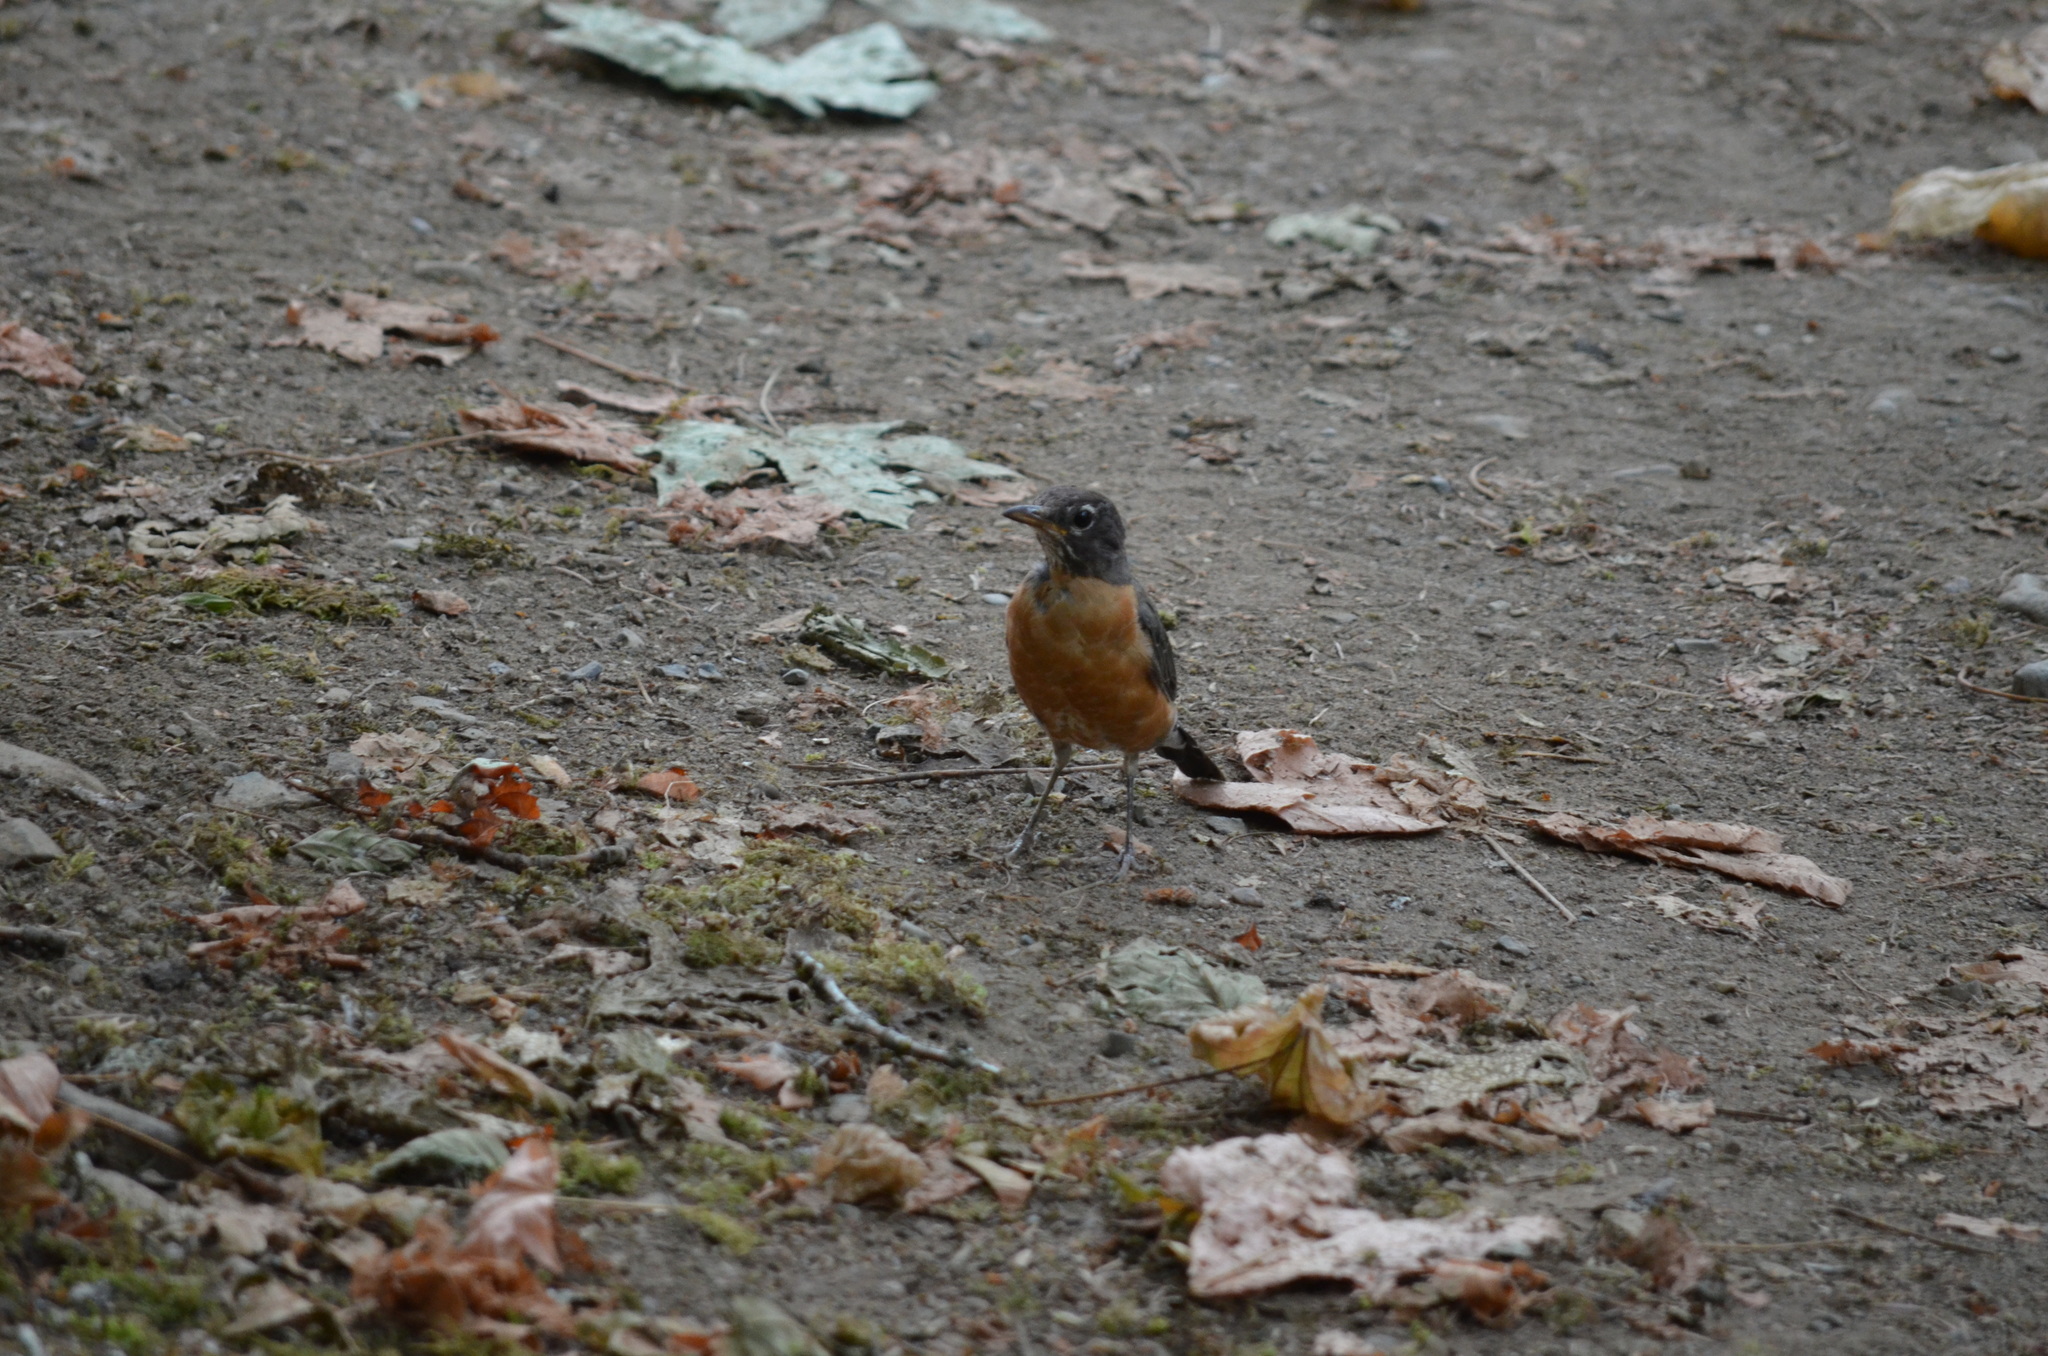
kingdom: Animalia
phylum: Chordata
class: Aves
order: Passeriformes
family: Turdidae
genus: Turdus
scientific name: Turdus migratorius
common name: American robin
